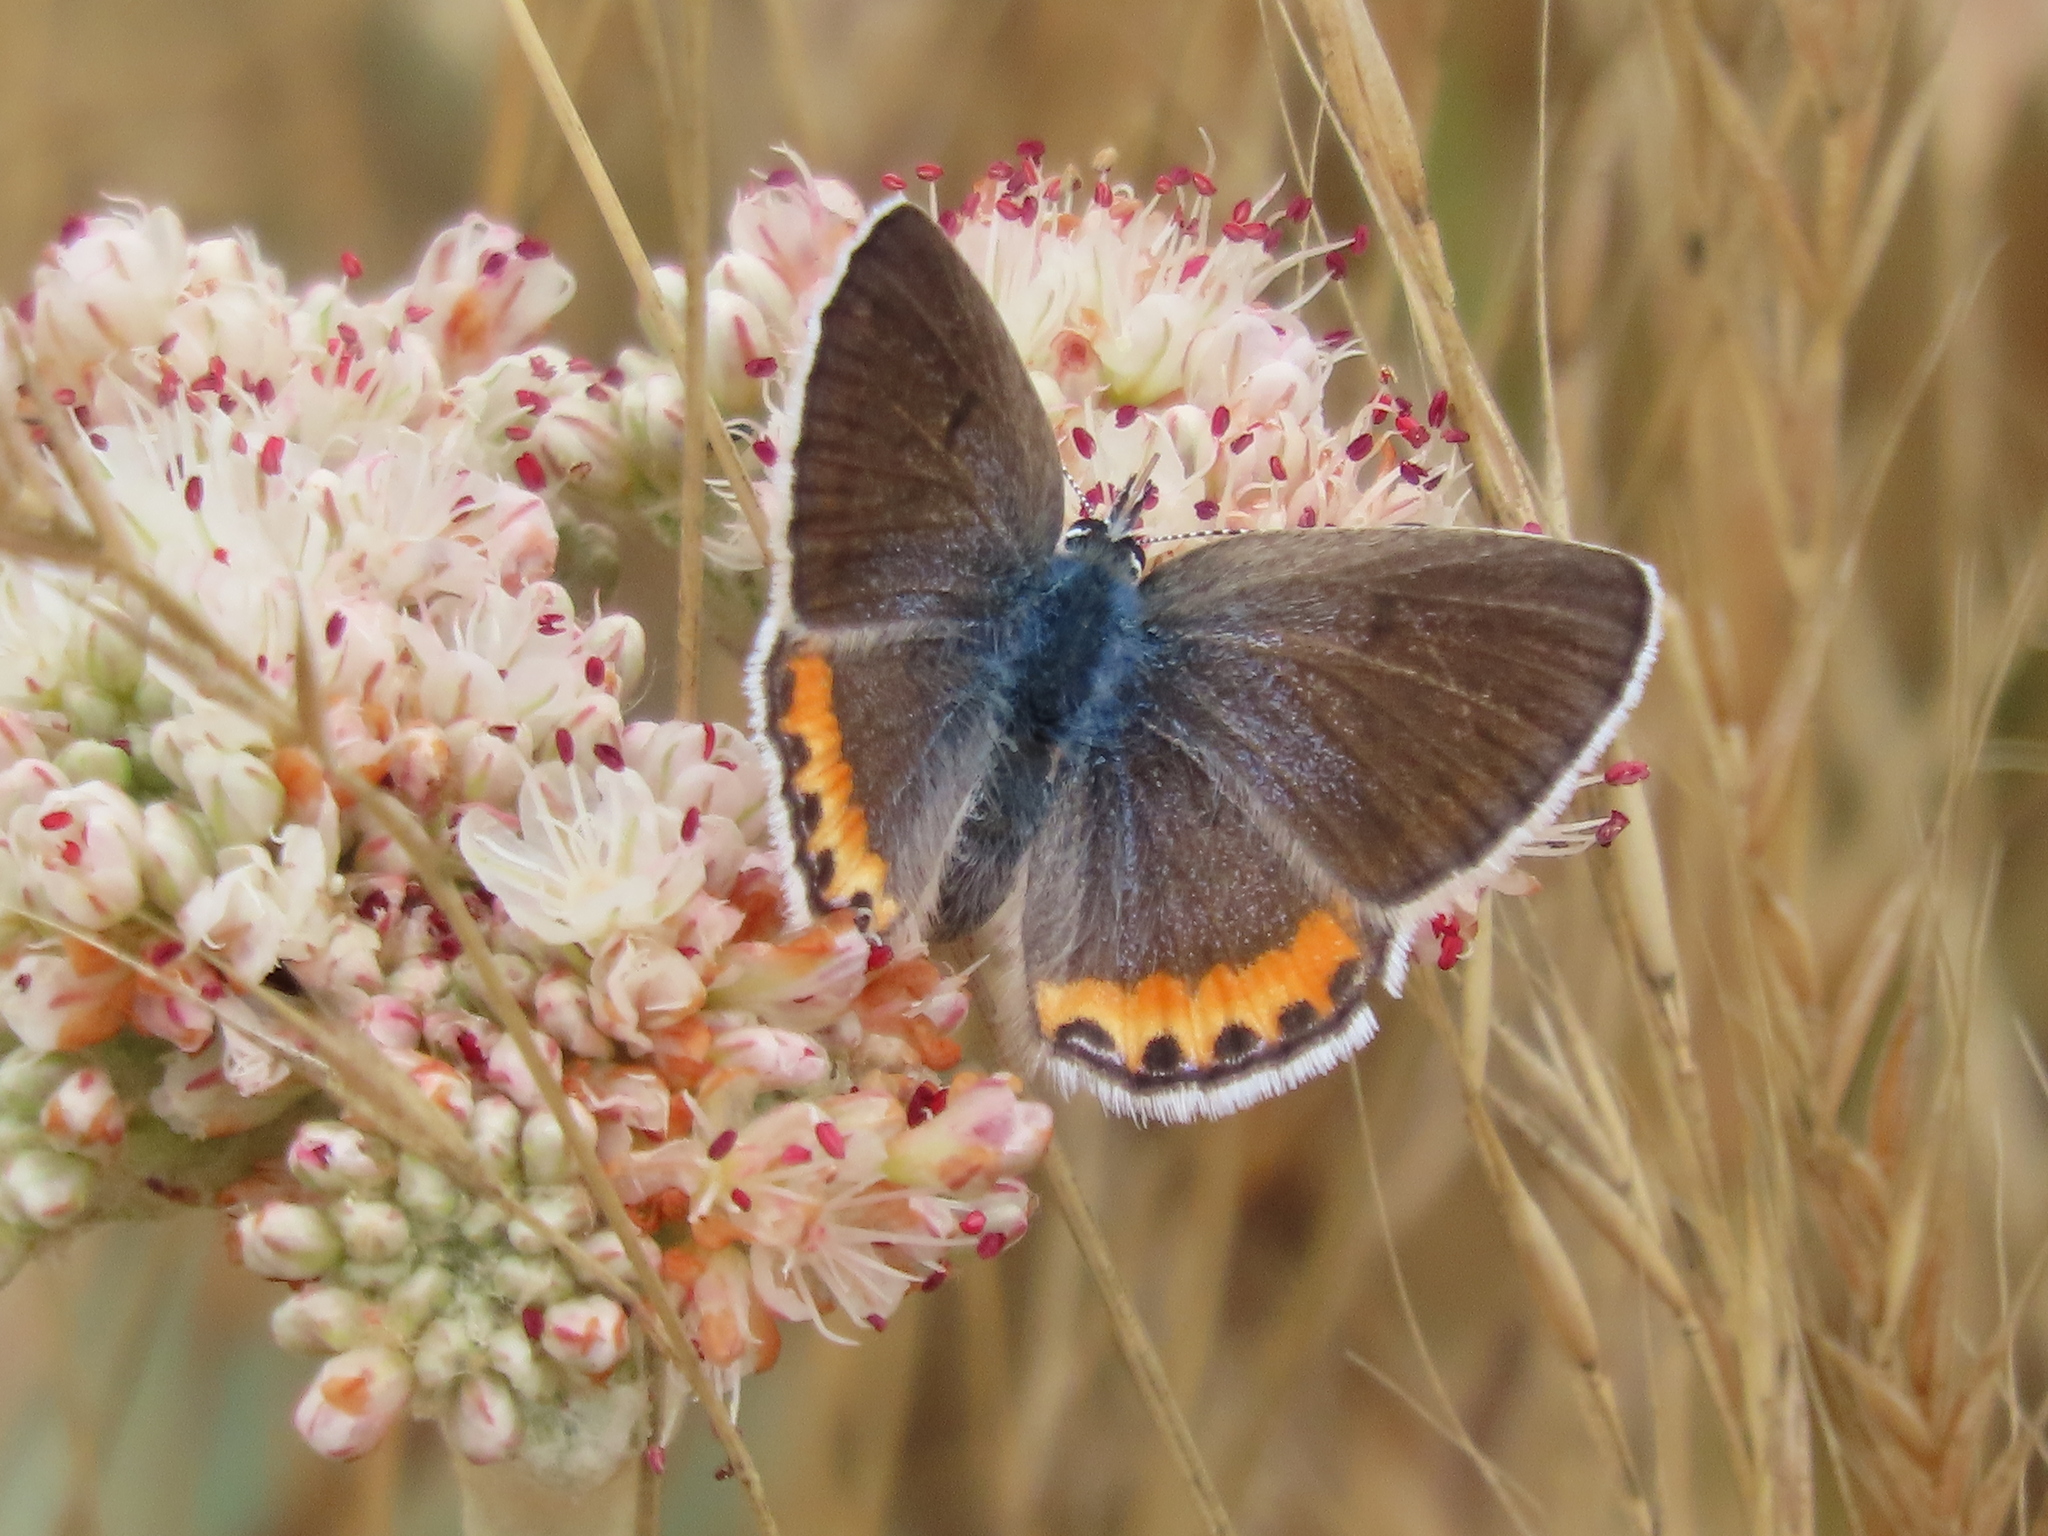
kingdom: Animalia
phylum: Arthropoda
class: Insecta
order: Lepidoptera
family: Lycaenidae
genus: Icaricia
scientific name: Icaricia acmon
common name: Acmon blue
